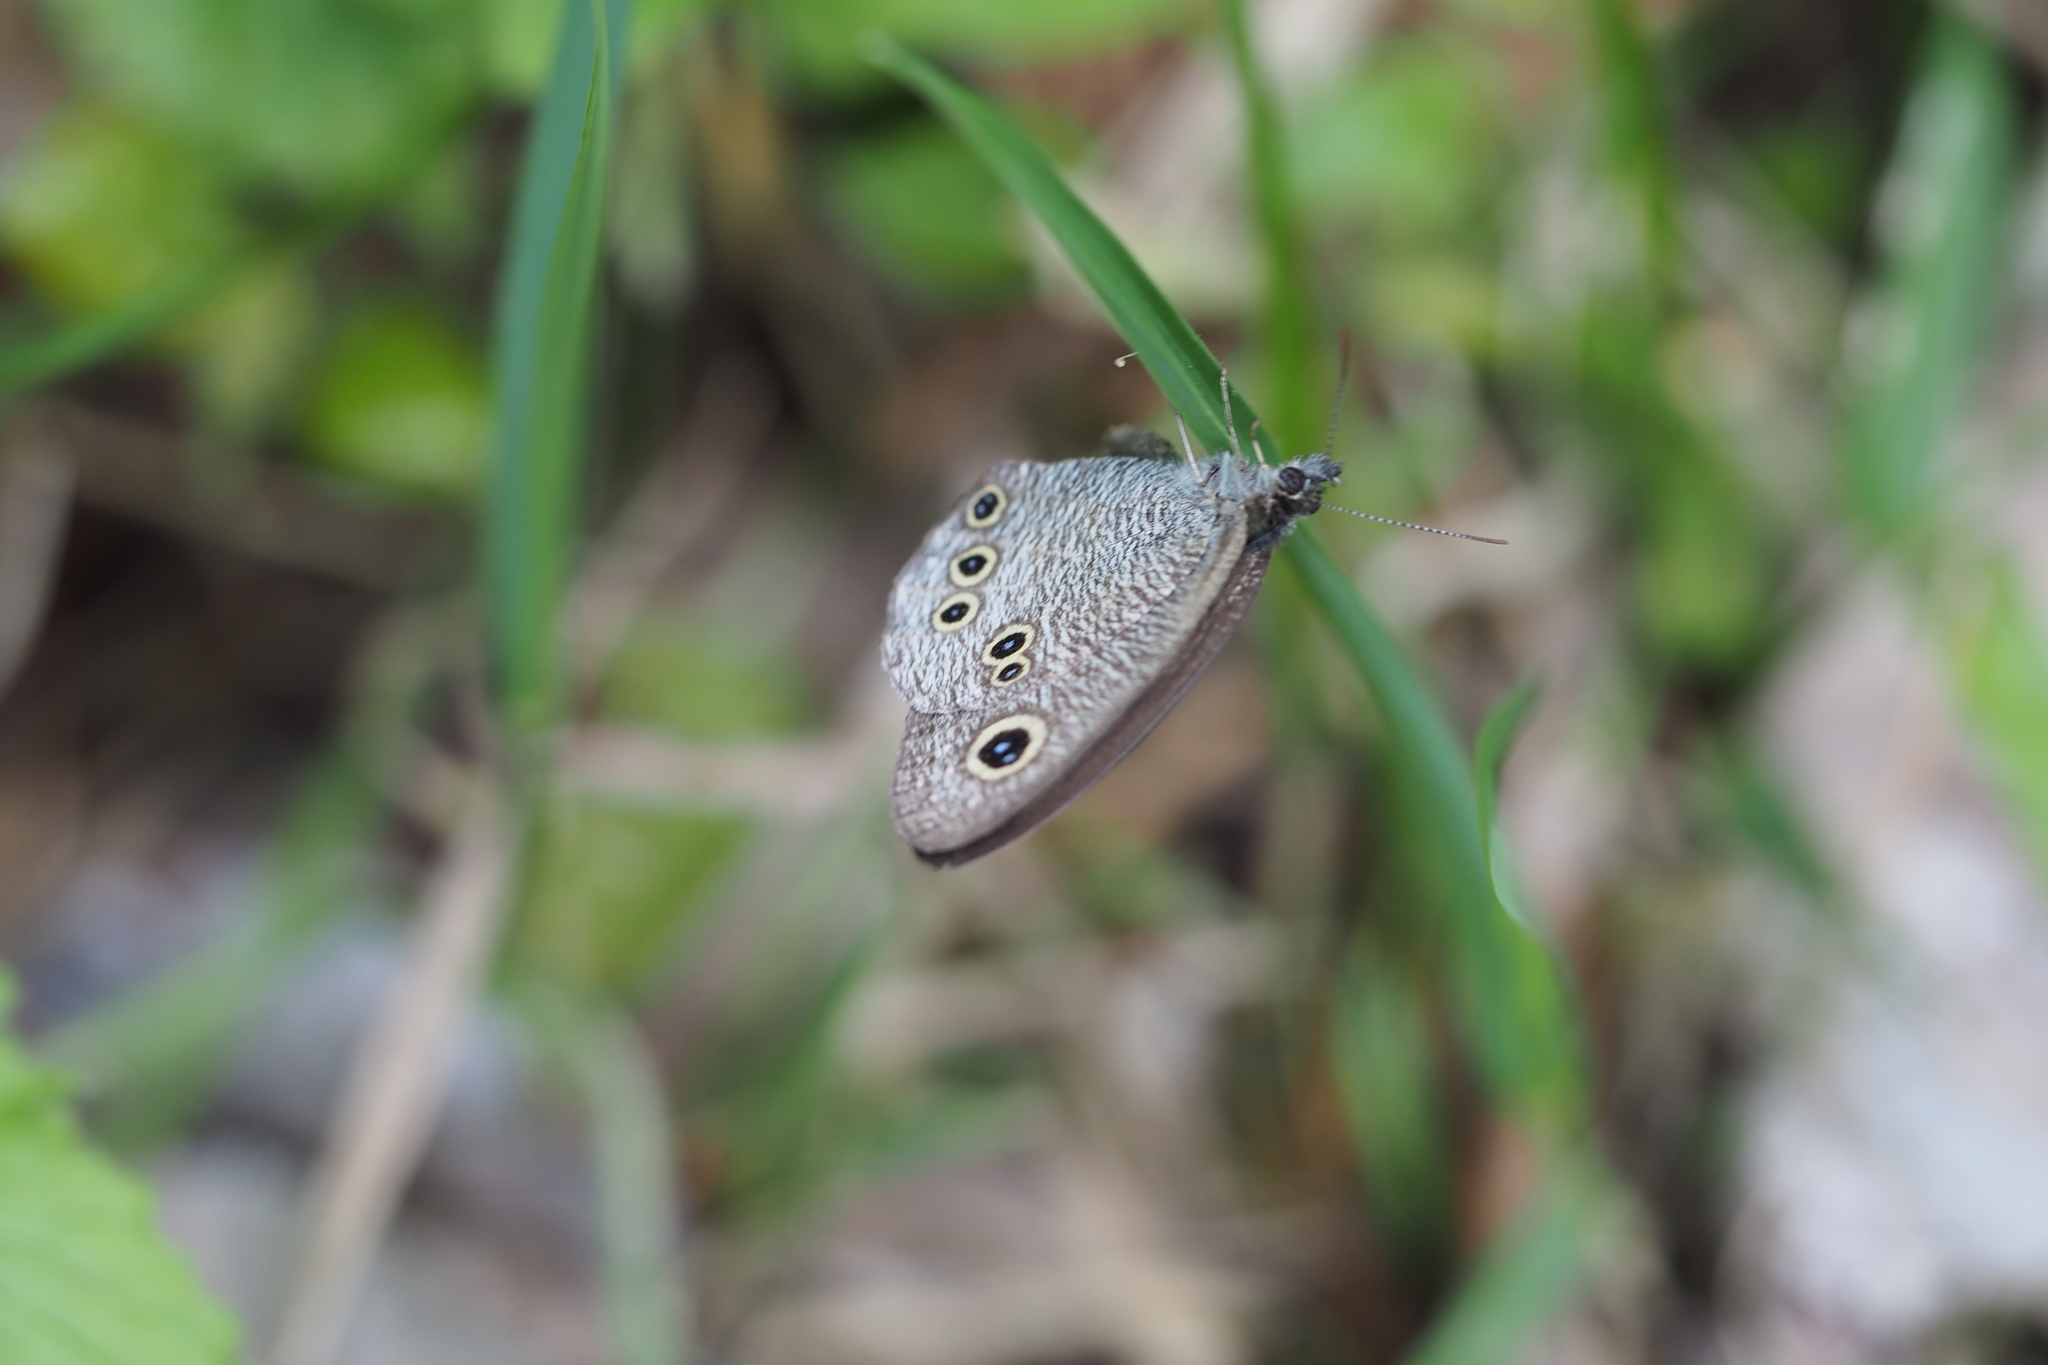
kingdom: Animalia
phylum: Arthropoda
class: Insecta
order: Lepidoptera
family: Nymphalidae
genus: Ypthima
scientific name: Ypthima argus
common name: Common fivering
